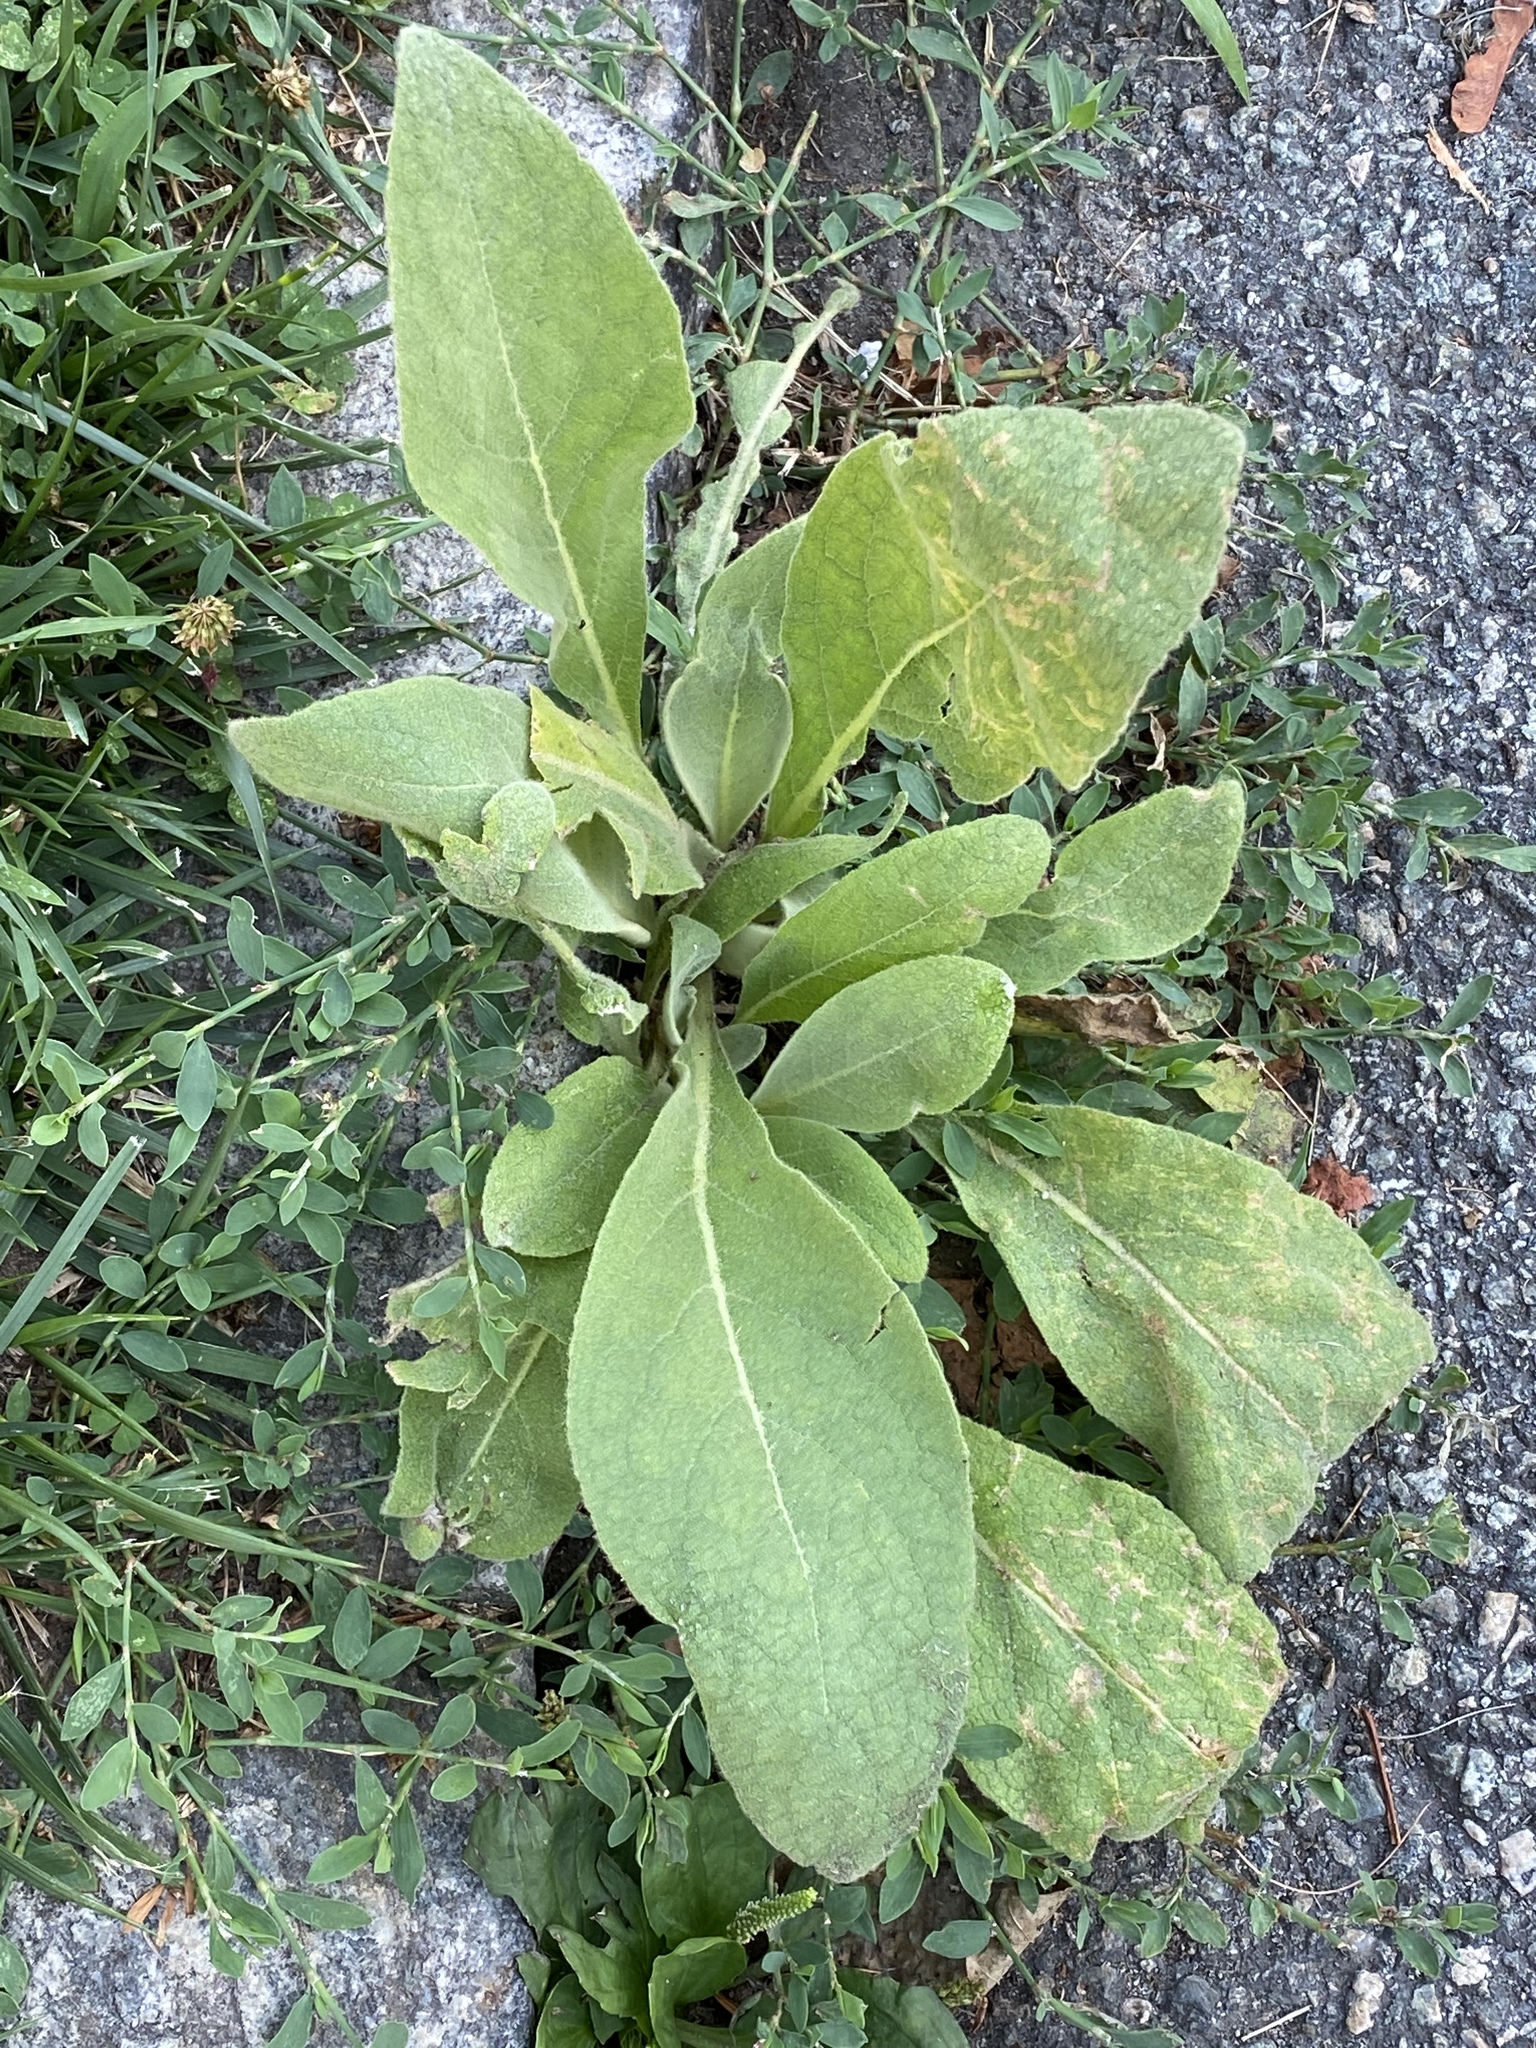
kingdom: Plantae
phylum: Tracheophyta
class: Magnoliopsida
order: Lamiales
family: Scrophulariaceae
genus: Verbascum
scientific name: Verbascum thapsus
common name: Common mullein
